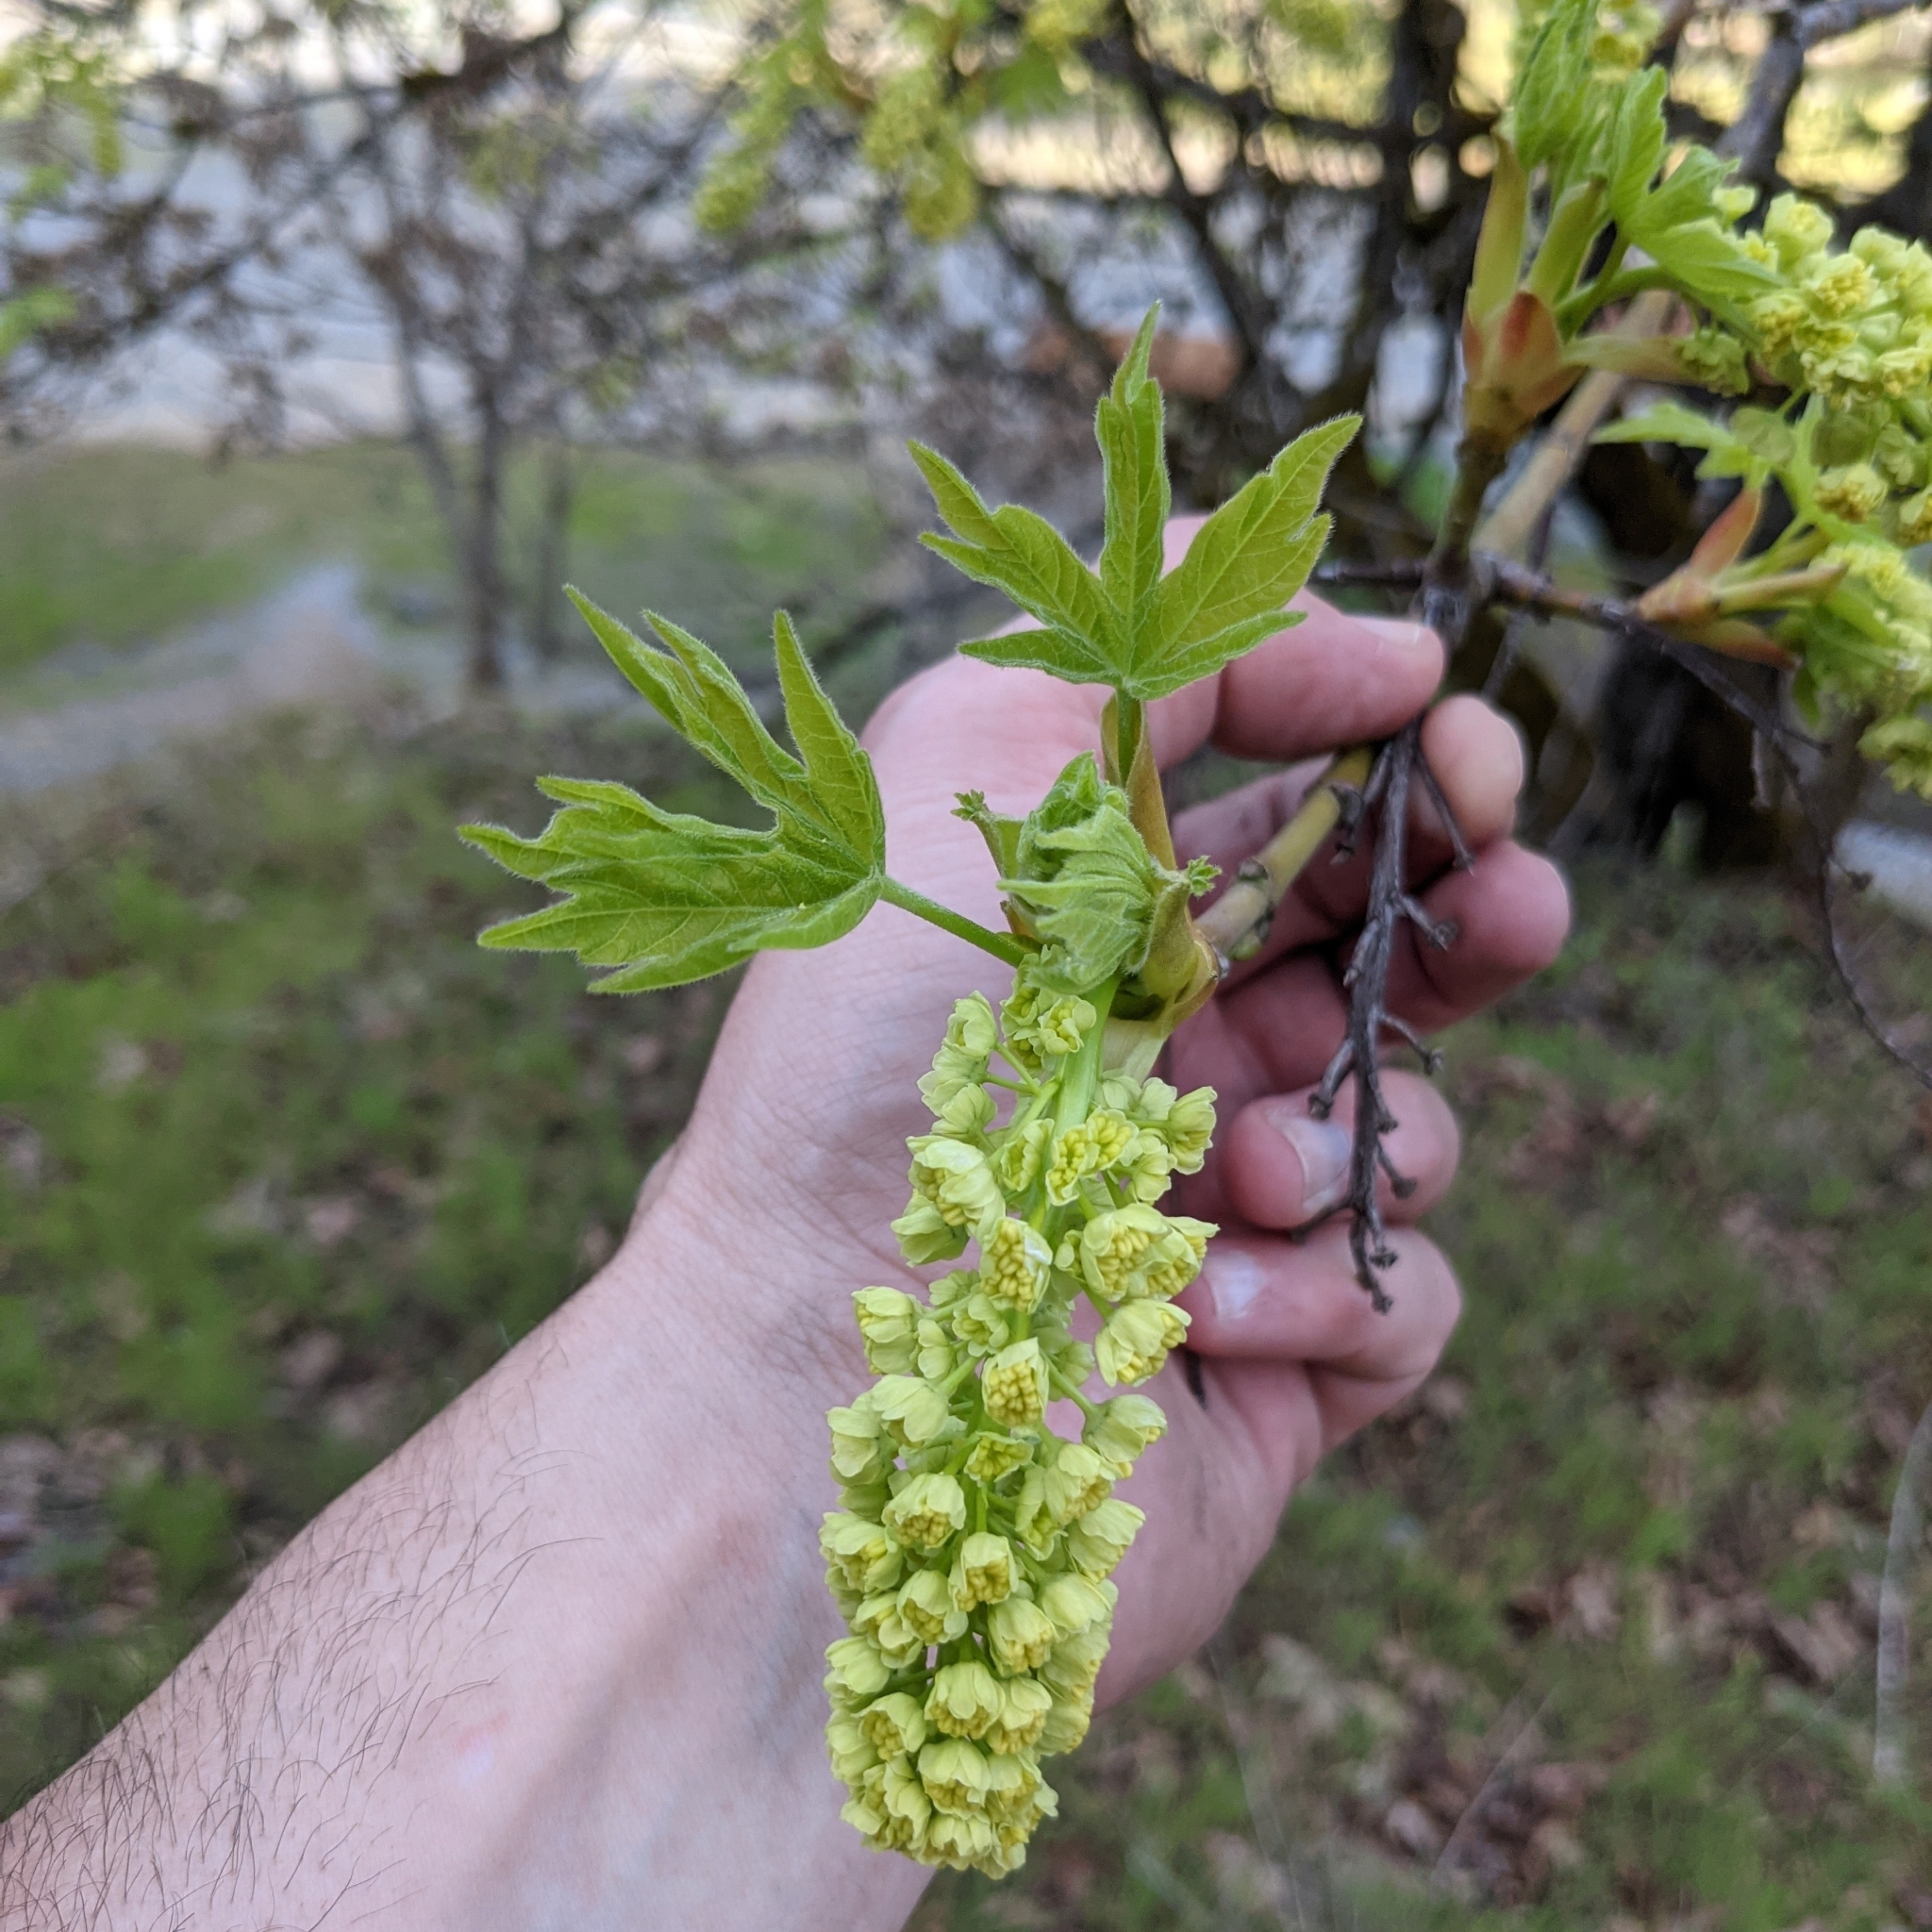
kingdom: Plantae
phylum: Tracheophyta
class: Magnoliopsida
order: Sapindales
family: Sapindaceae
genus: Acer
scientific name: Acer macrophyllum
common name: Oregon maple
